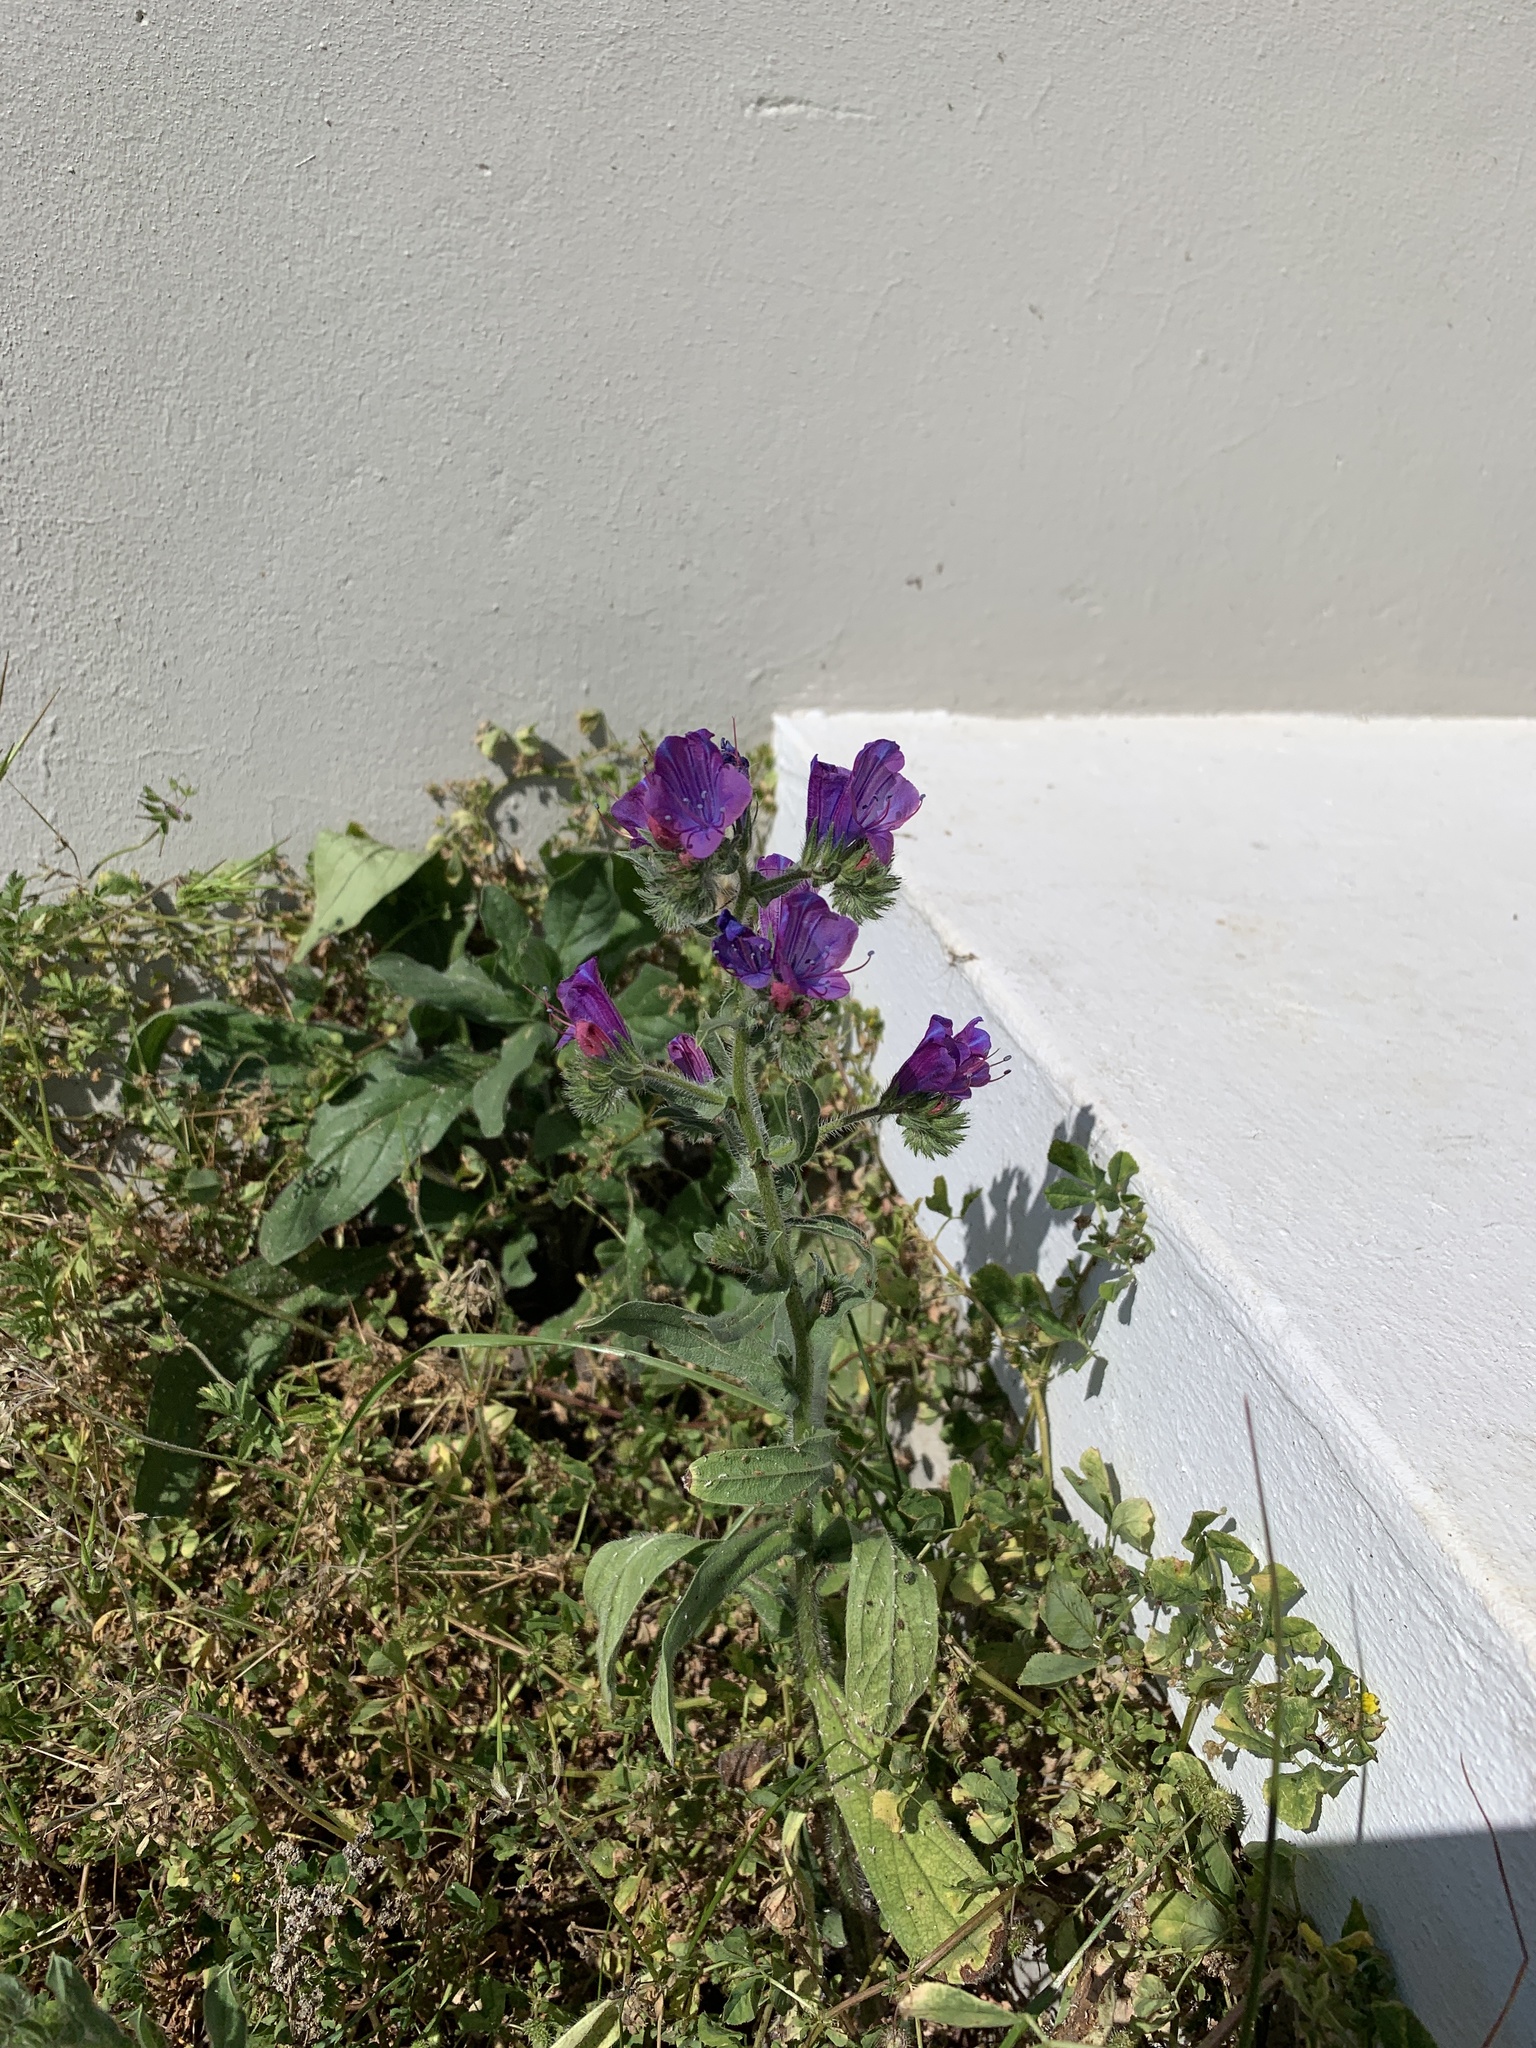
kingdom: Plantae
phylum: Tracheophyta
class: Magnoliopsida
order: Boraginales
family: Boraginaceae
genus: Echium
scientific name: Echium plantagineum
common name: Purple viper's-bugloss
